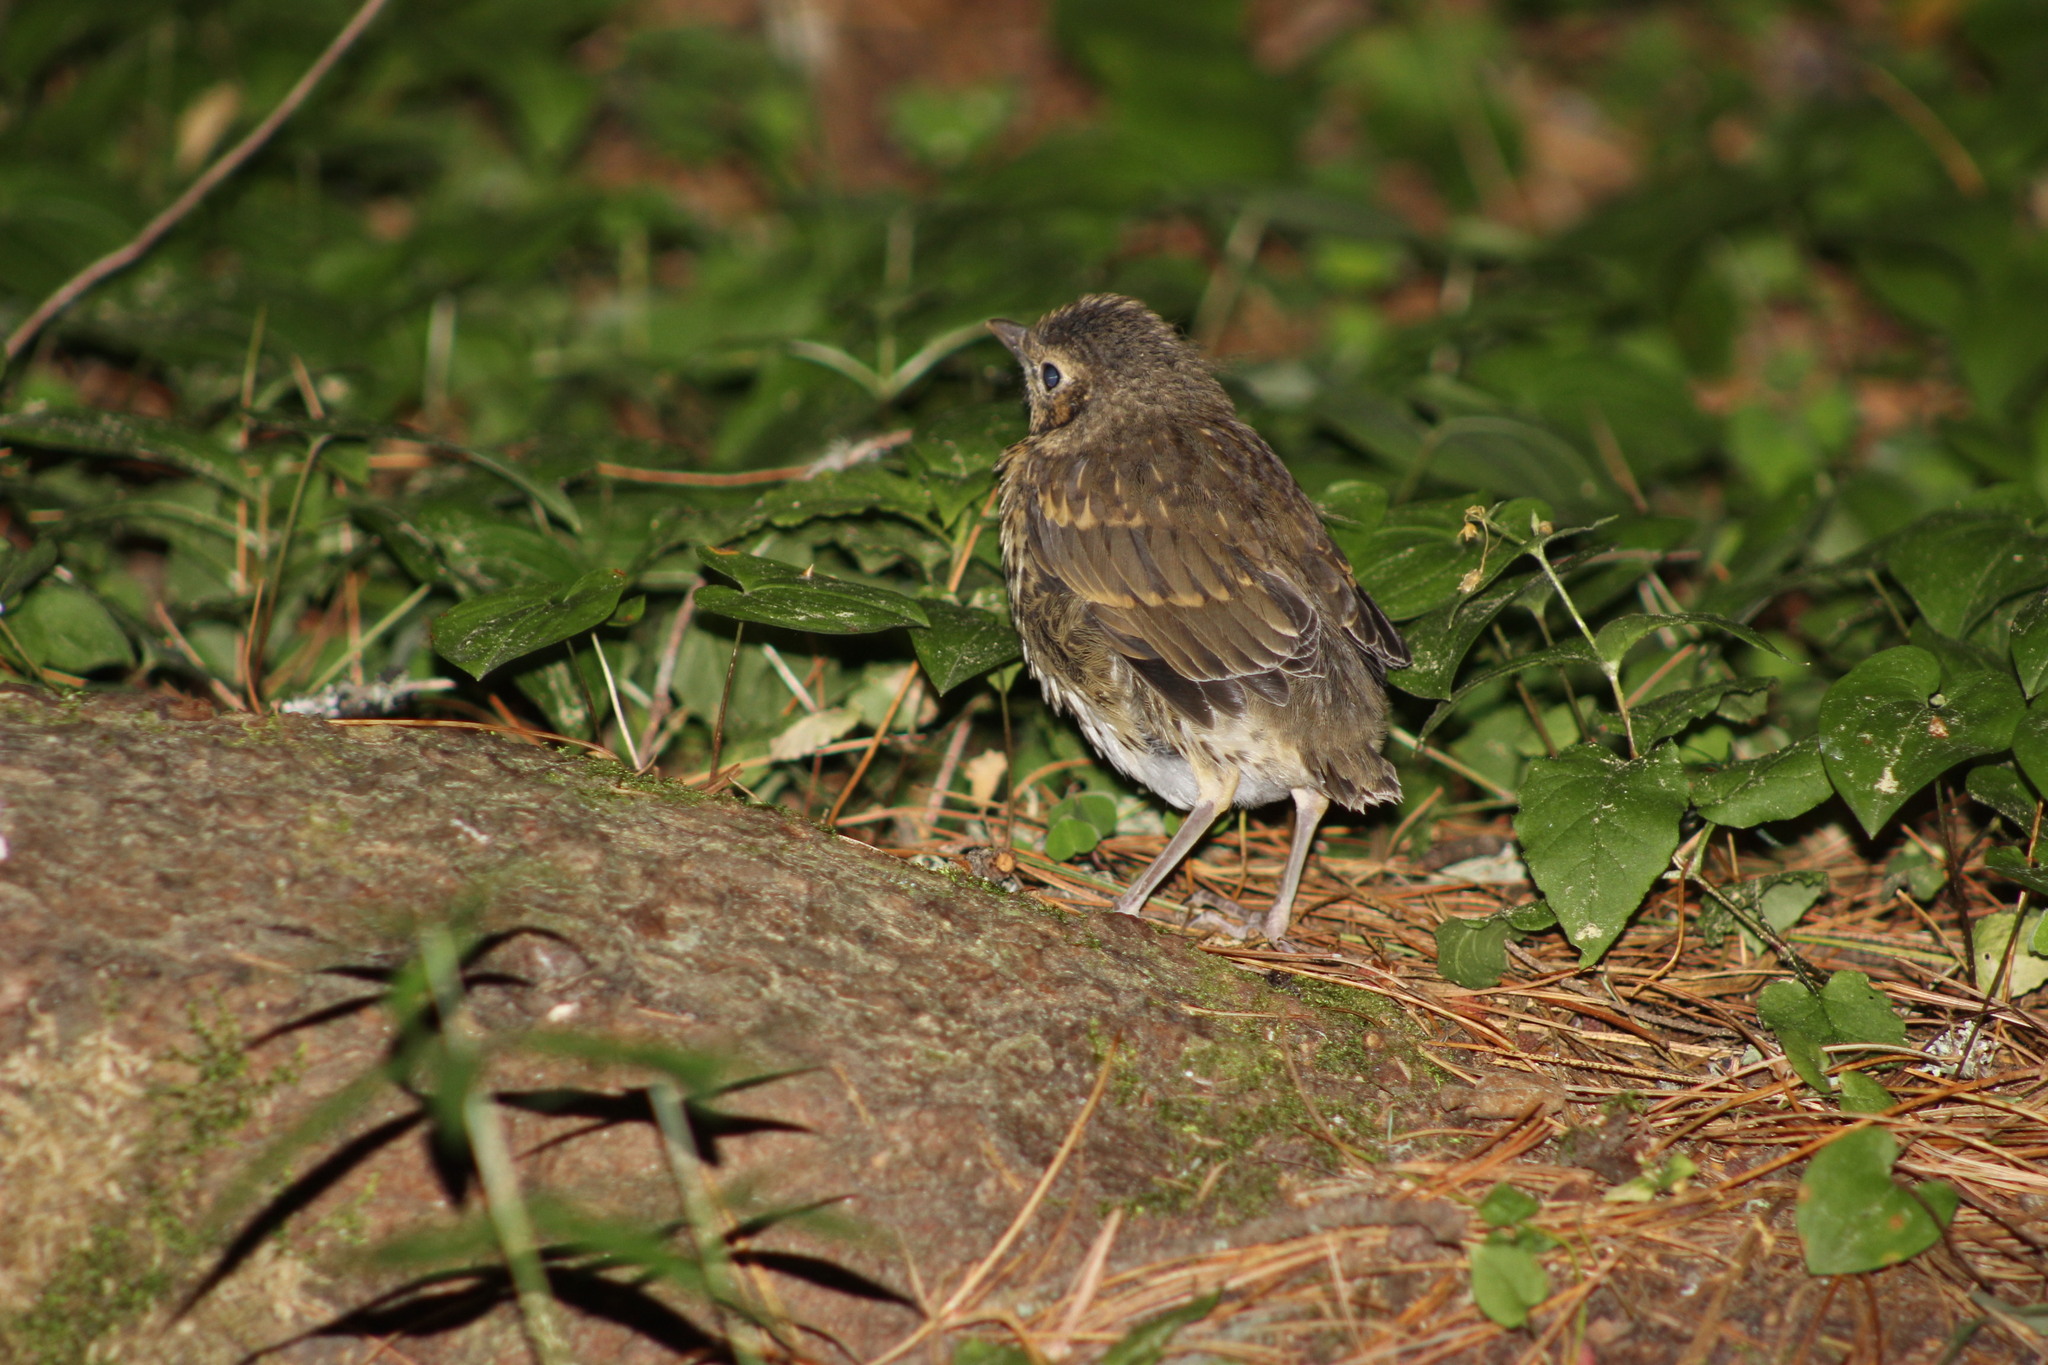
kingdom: Animalia
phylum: Chordata
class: Aves
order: Passeriformes
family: Turdidae
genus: Turdus
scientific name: Turdus philomelos
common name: Song thrush
